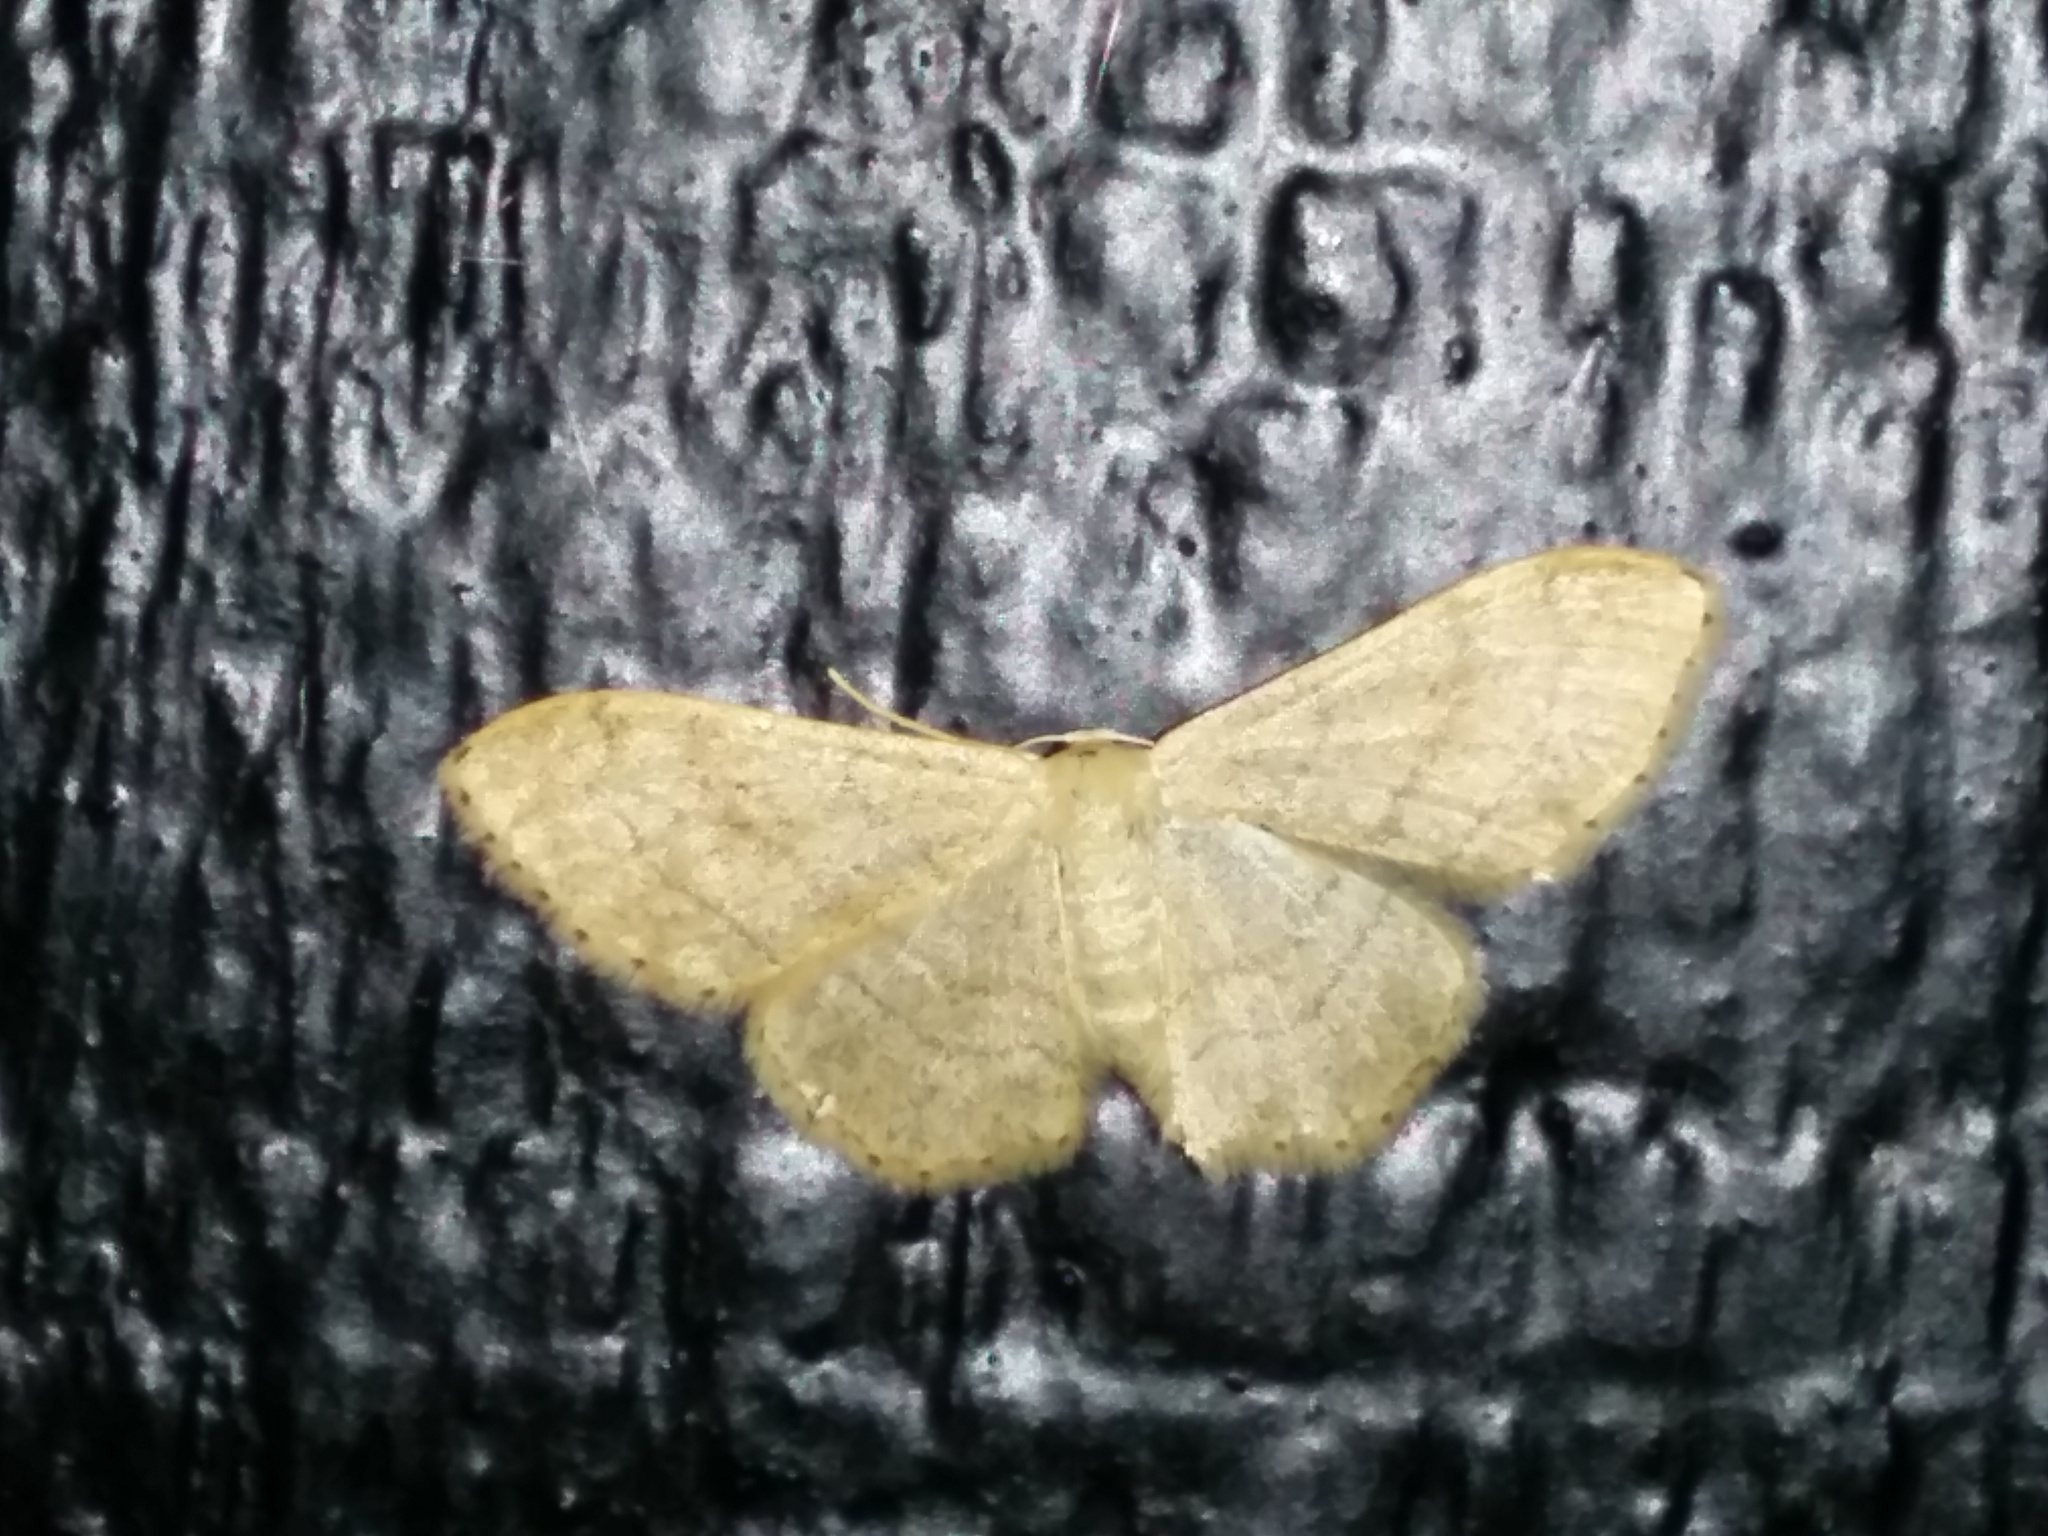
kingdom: Animalia
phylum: Arthropoda
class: Insecta
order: Lepidoptera
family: Geometridae
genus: Idaea
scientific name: Idaea aversata
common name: Riband wave
